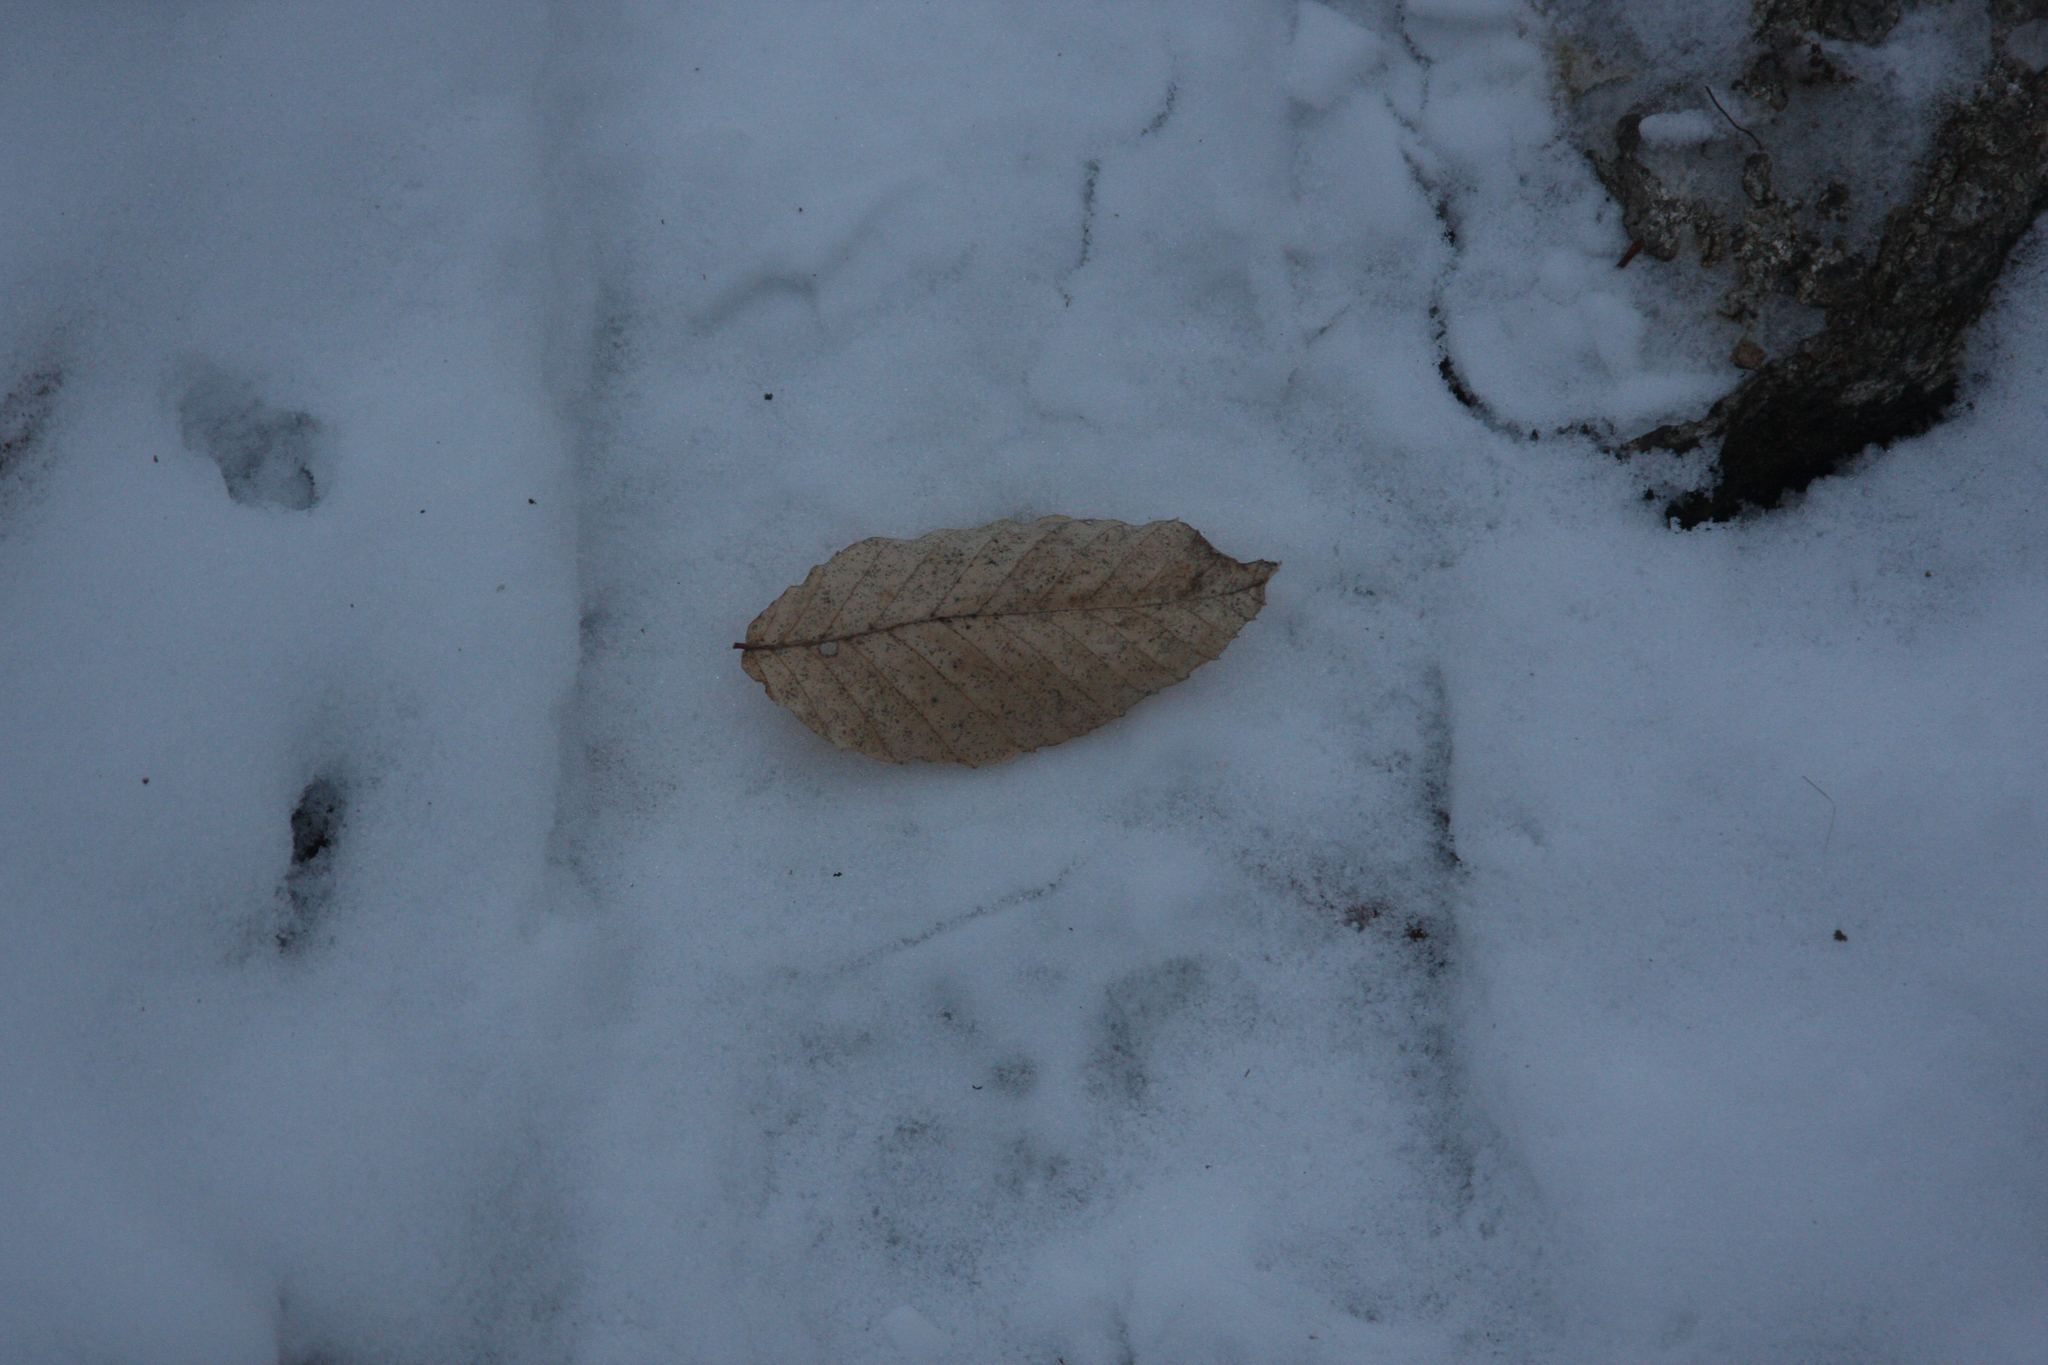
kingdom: Plantae
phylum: Tracheophyta
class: Magnoliopsida
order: Fagales
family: Fagaceae
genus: Fagus
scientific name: Fagus grandifolia
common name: American beech
